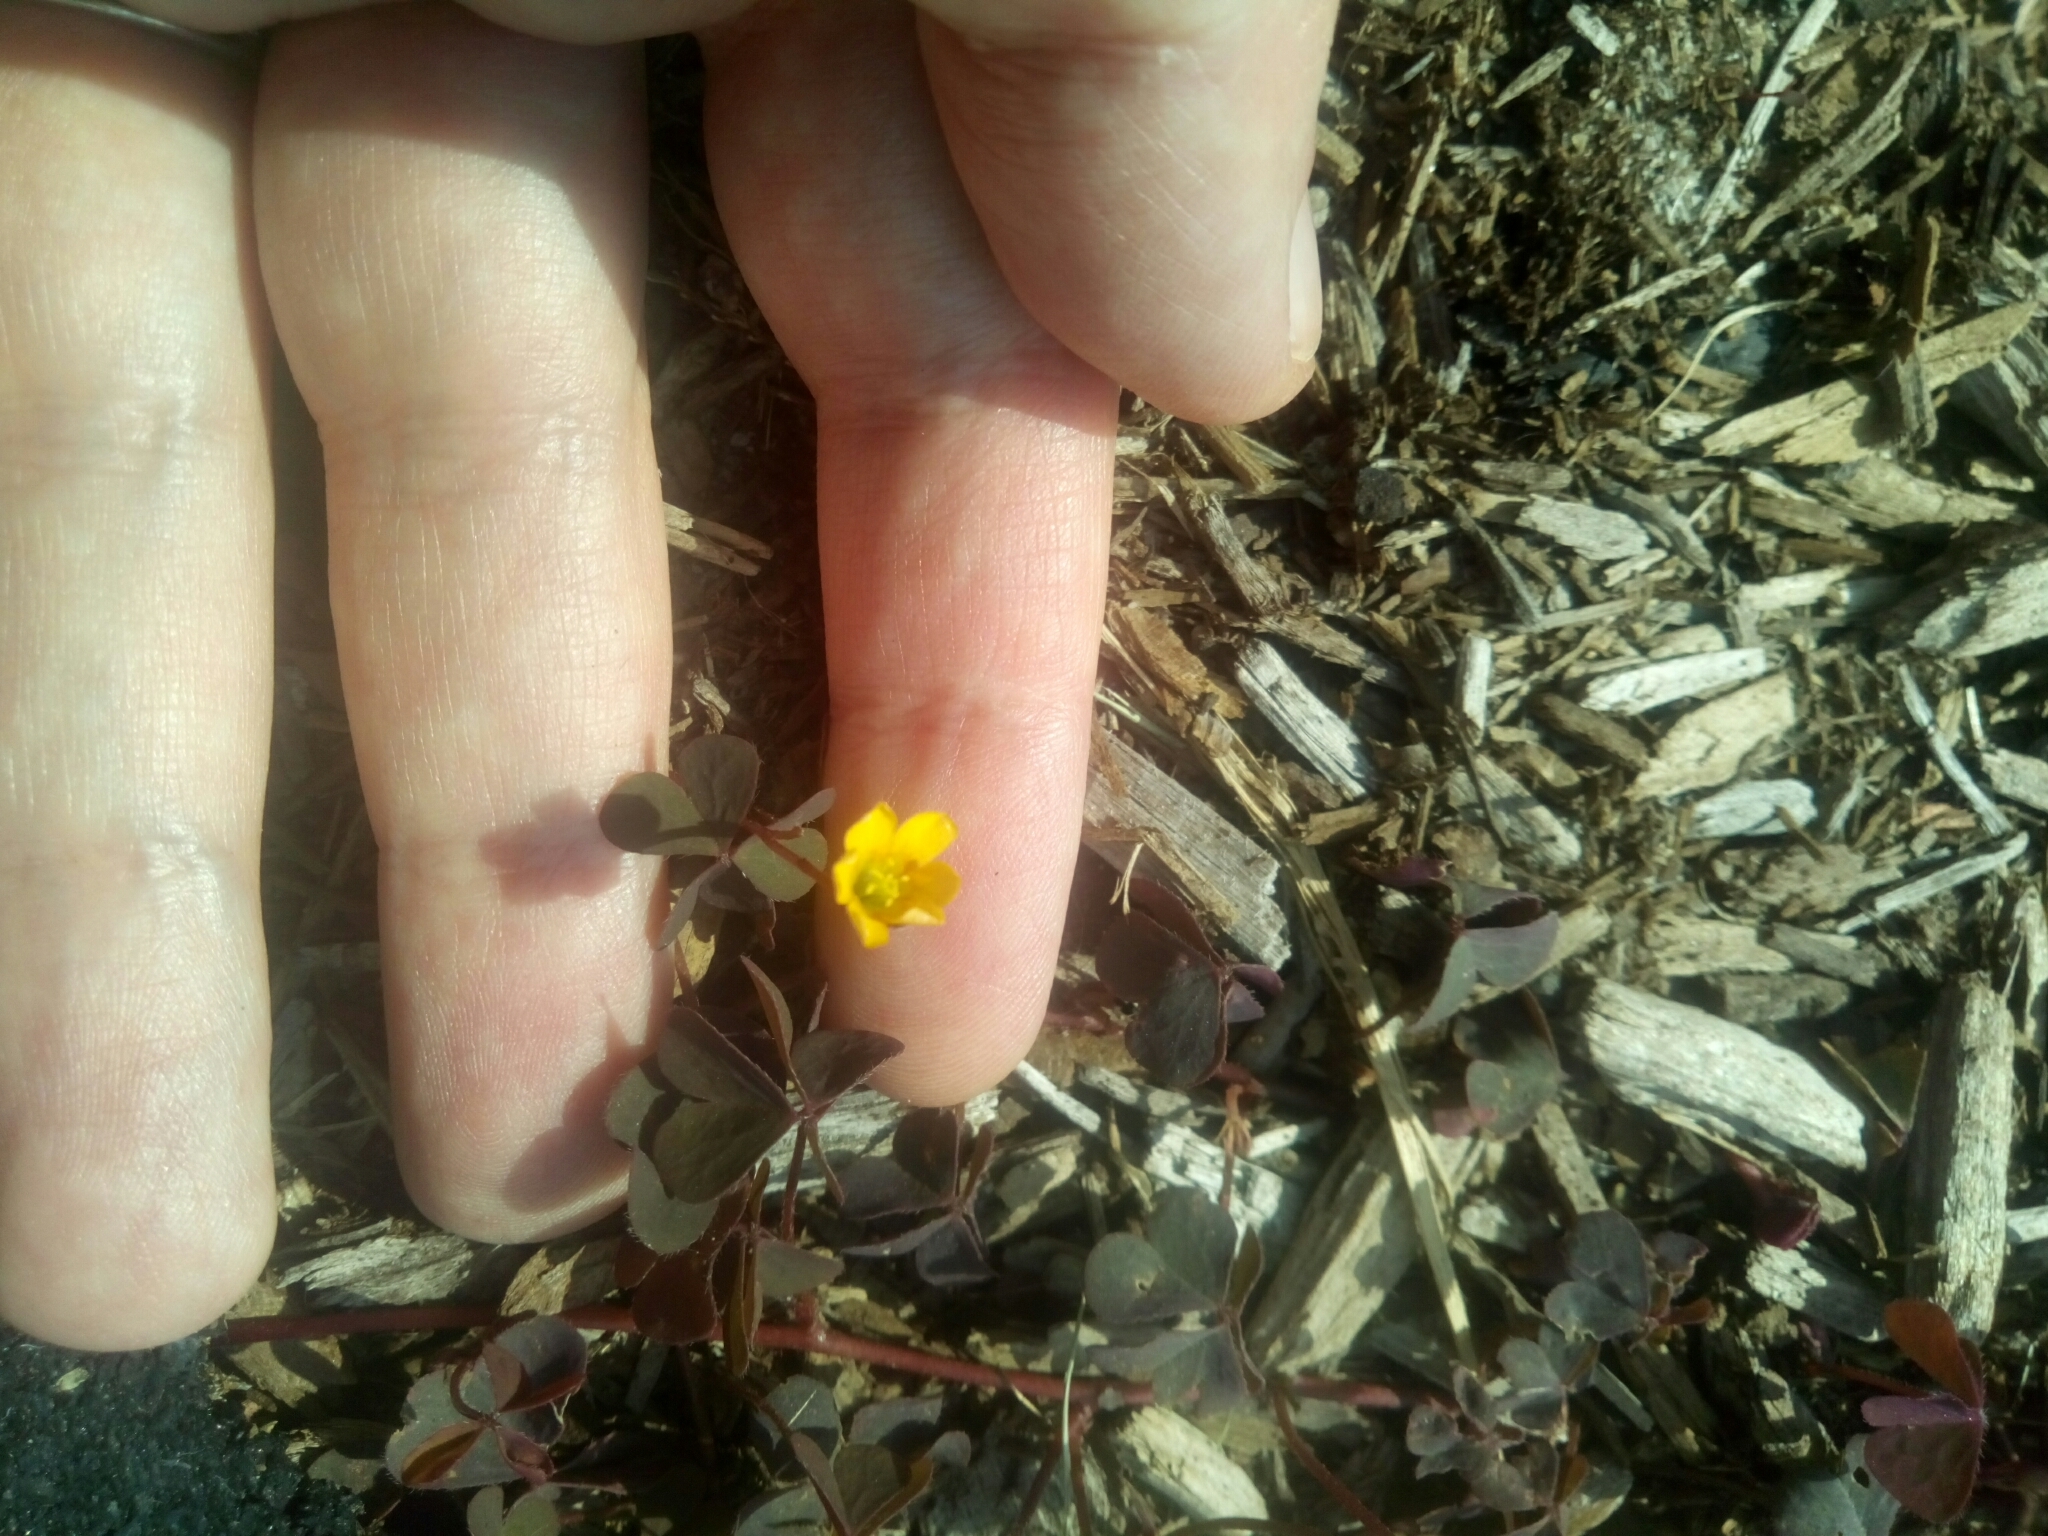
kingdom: Plantae
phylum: Tracheophyta
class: Magnoliopsida
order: Oxalidales
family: Oxalidaceae
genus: Oxalis
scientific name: Oxalis corniculata
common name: Procumbent yellow-sorrel
